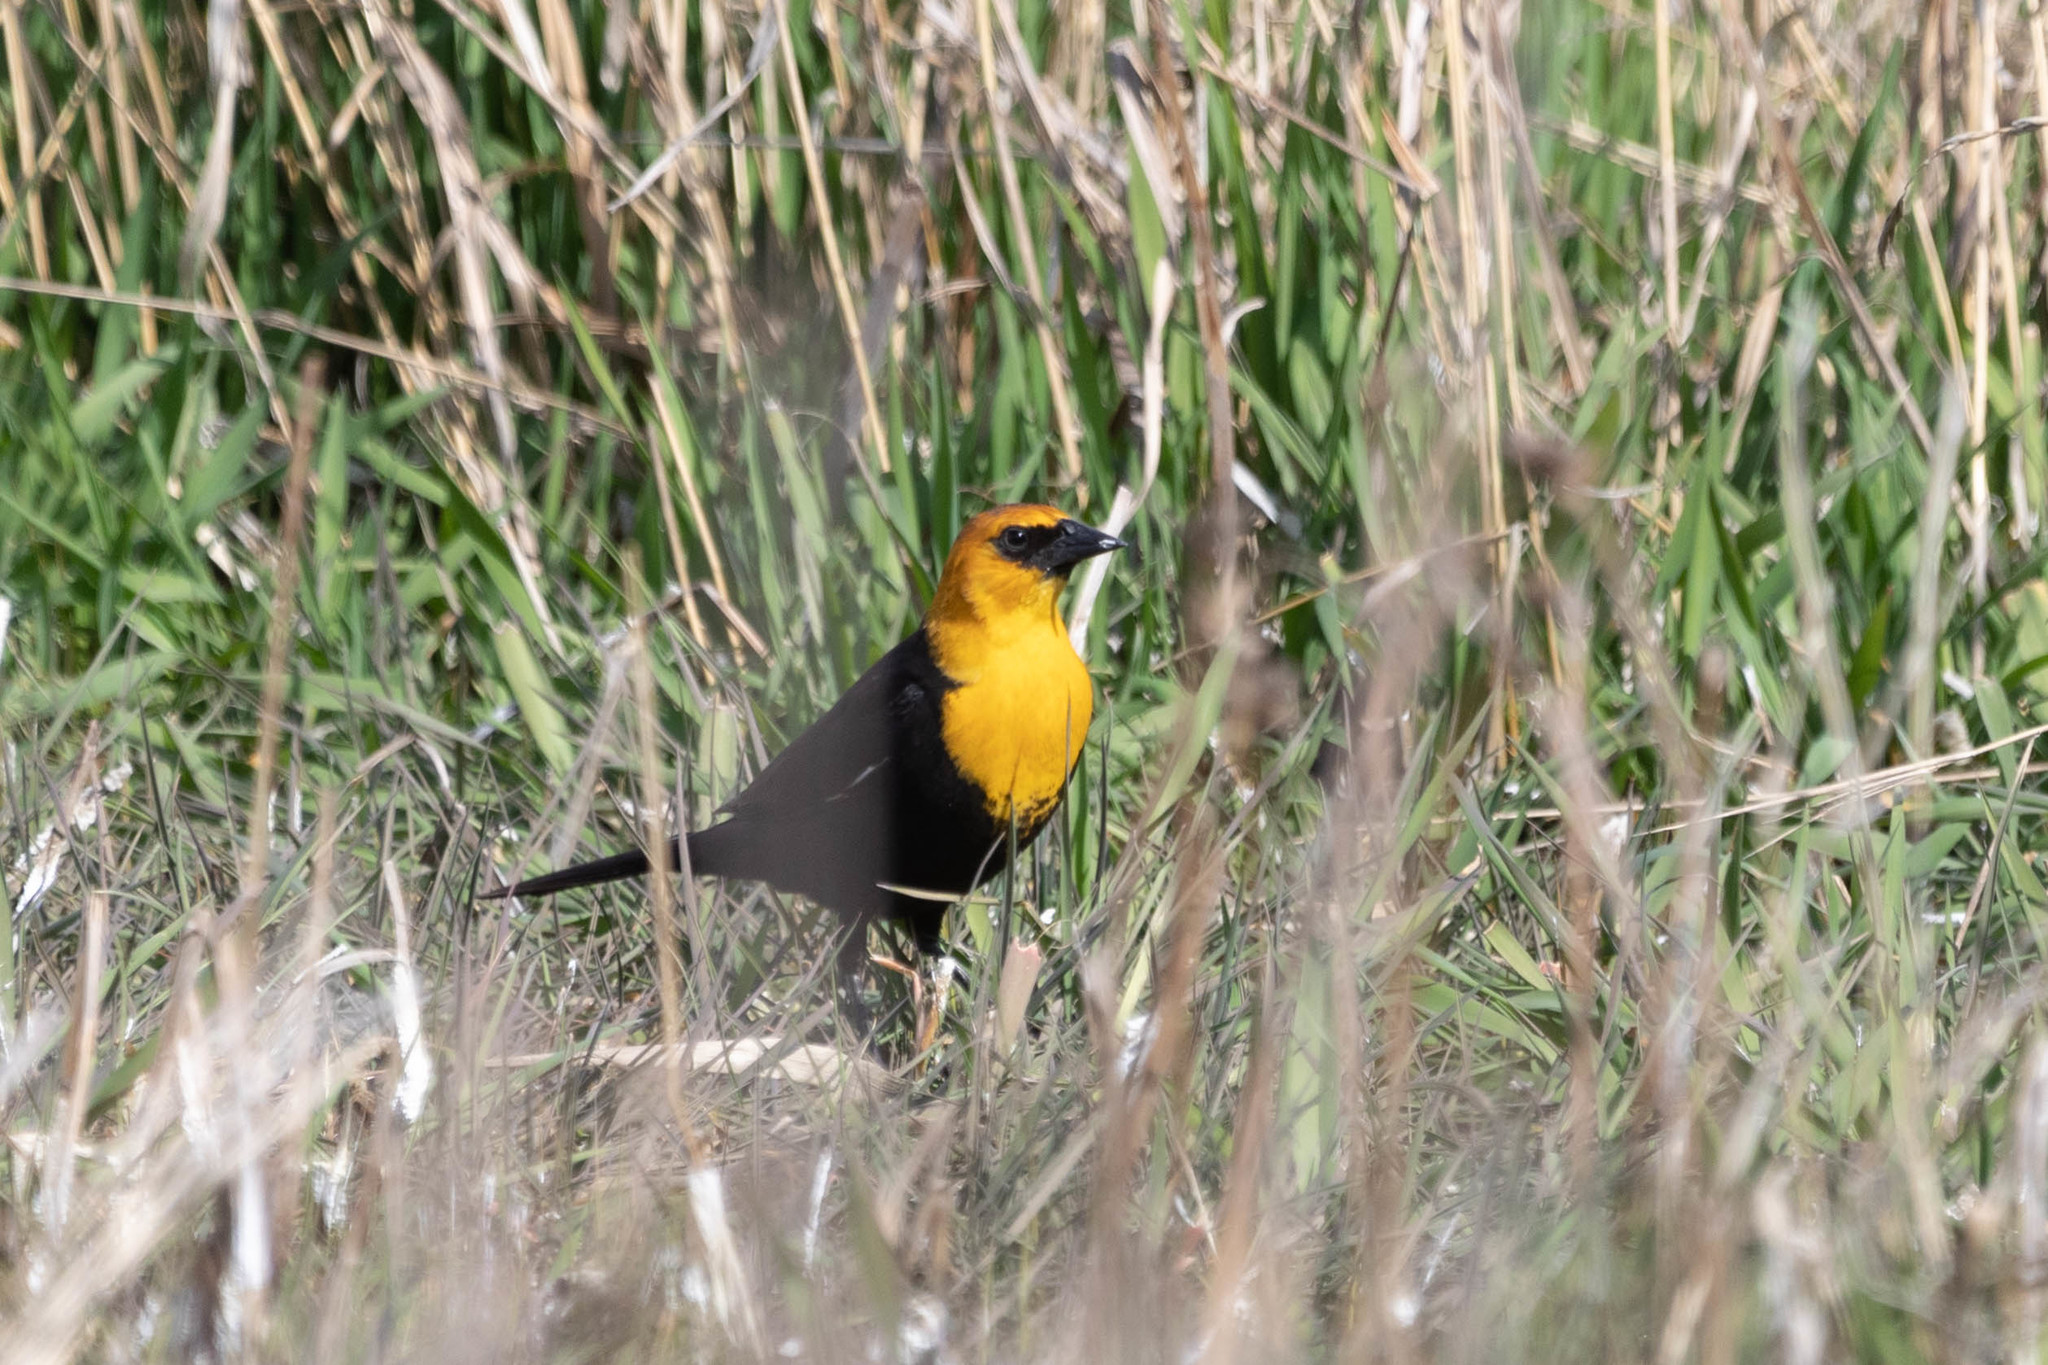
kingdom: Animalia
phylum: Chordata
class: Aves
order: Passeriformes
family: Icteridae
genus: Xanthocephalus
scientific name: Xanthocephalus xanthocephalus
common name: Yellow-headed blackbird
